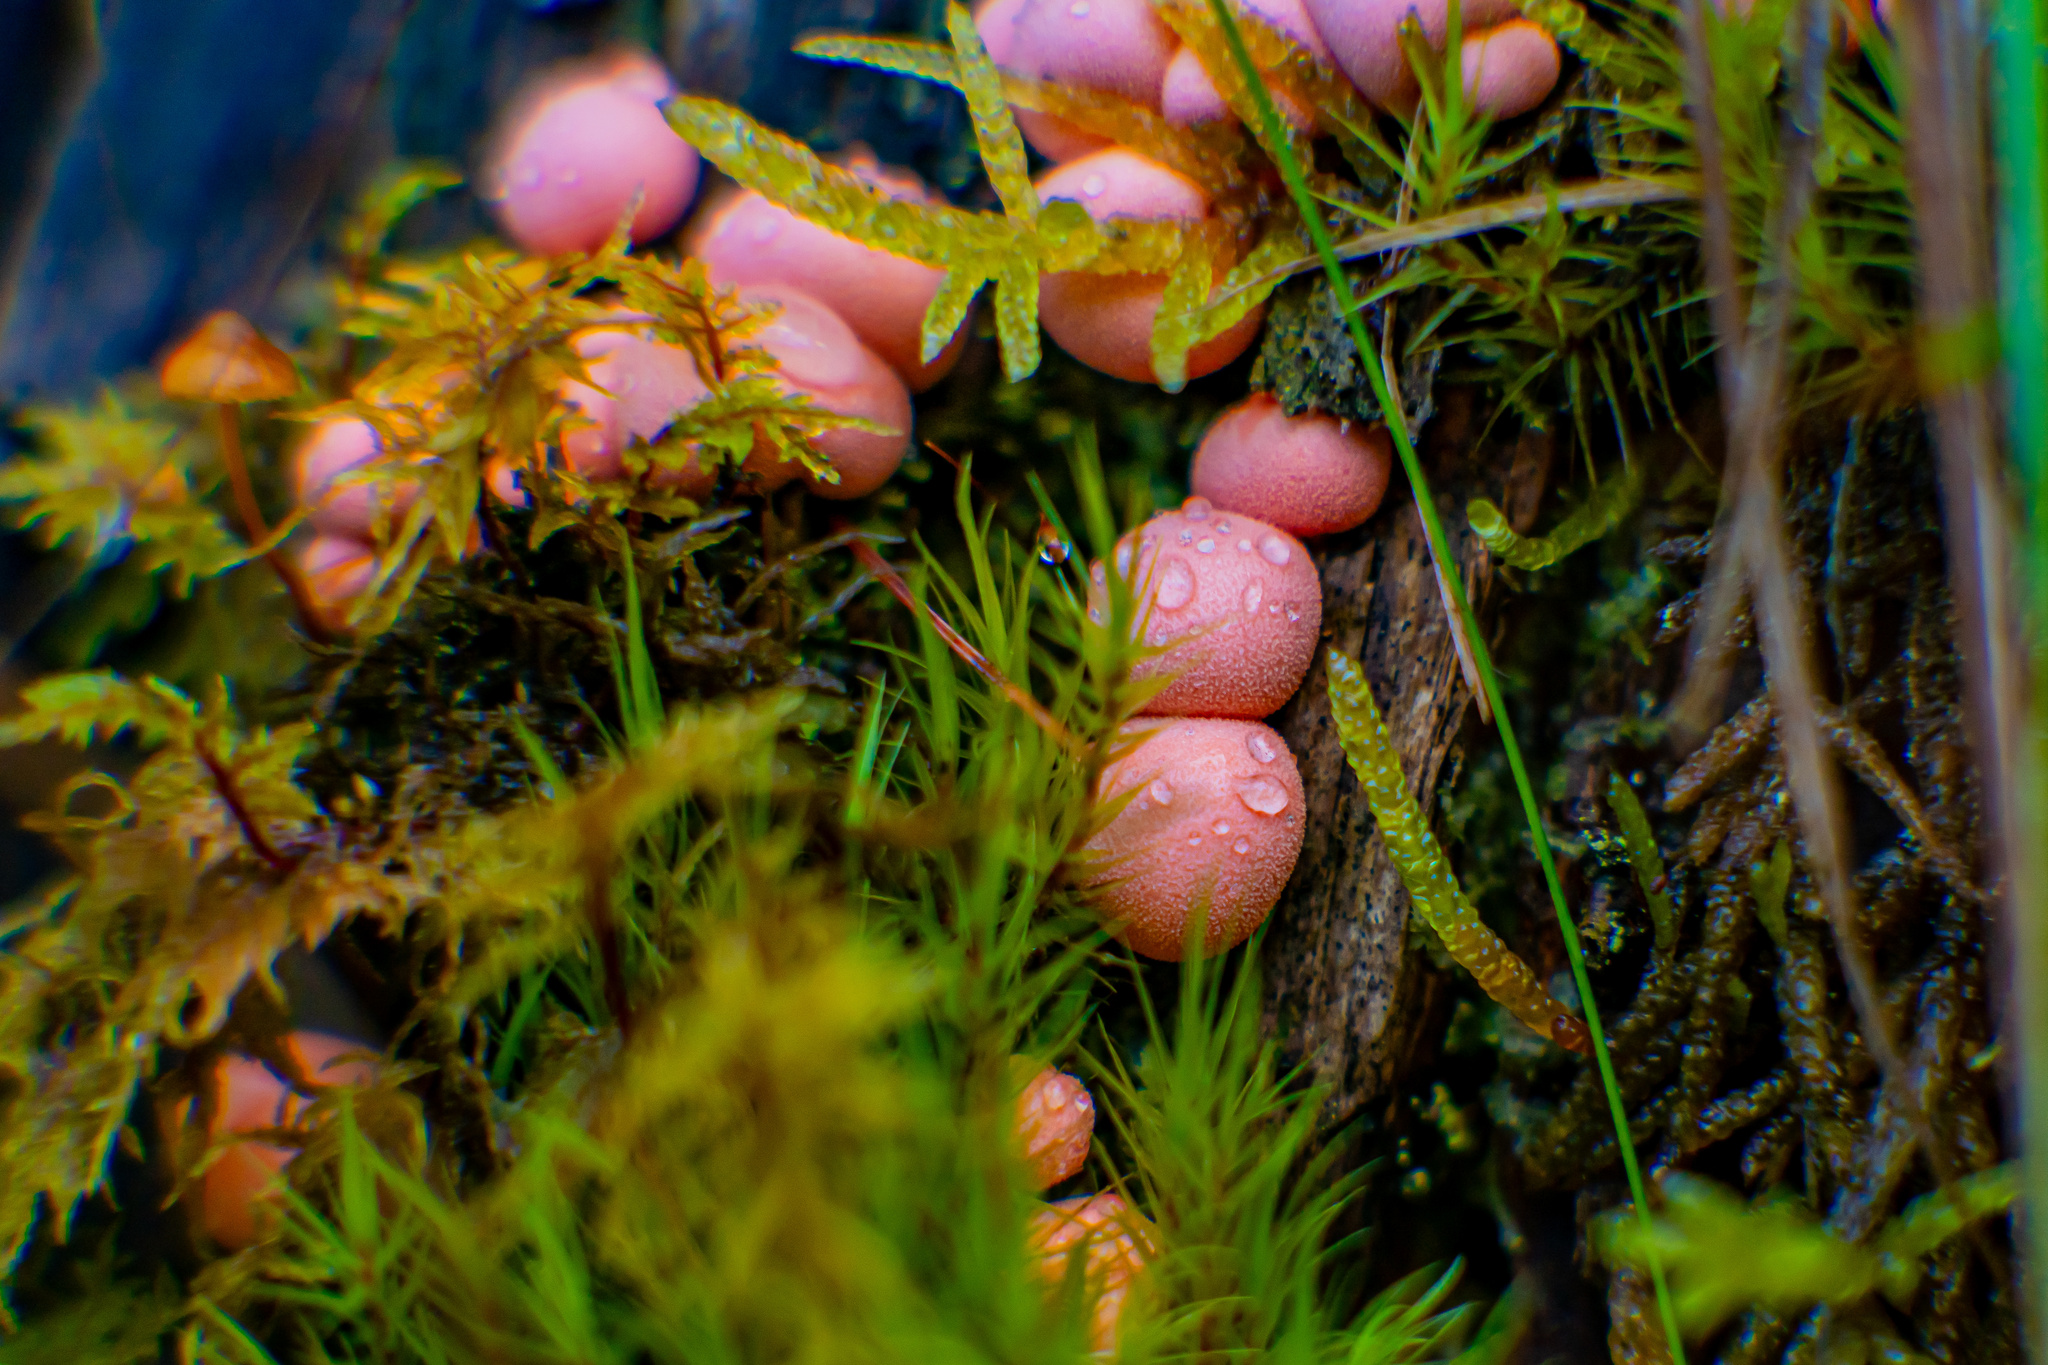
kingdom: Protozoa
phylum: Mycetozoa
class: Myxomycetes
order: Cribrariales
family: Tubiferaceae
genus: Lycogala
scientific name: Lycogala epidendrum
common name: Wolf's milk
